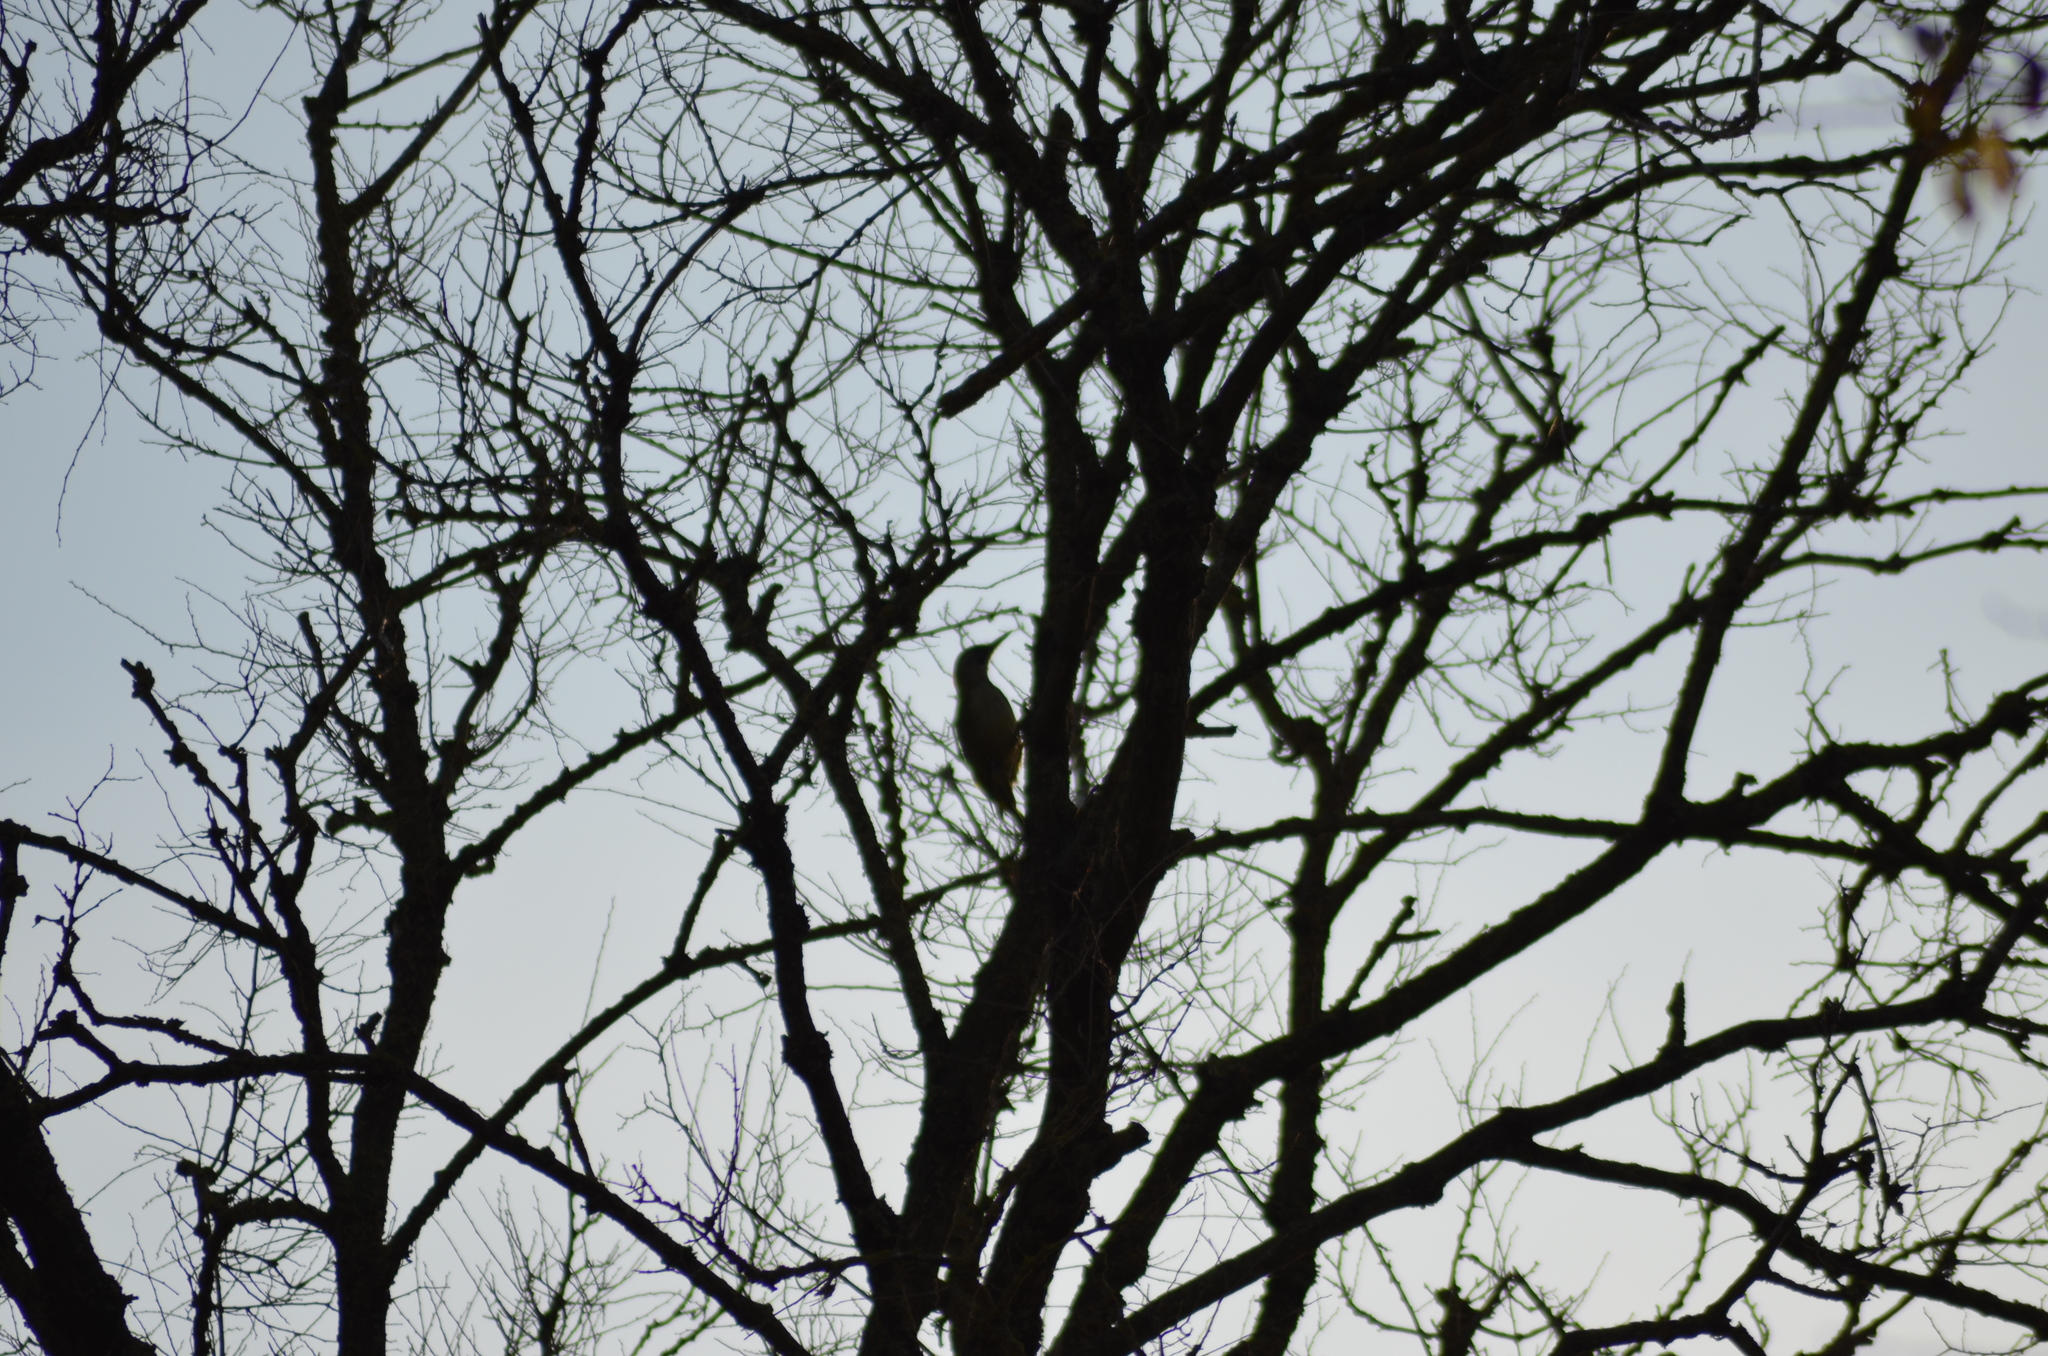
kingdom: Animalia
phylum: Chordata
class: Aves
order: Piciformes
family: Picidae
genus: Picus
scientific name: Picus sharpei
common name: Iberian green woodpecker
